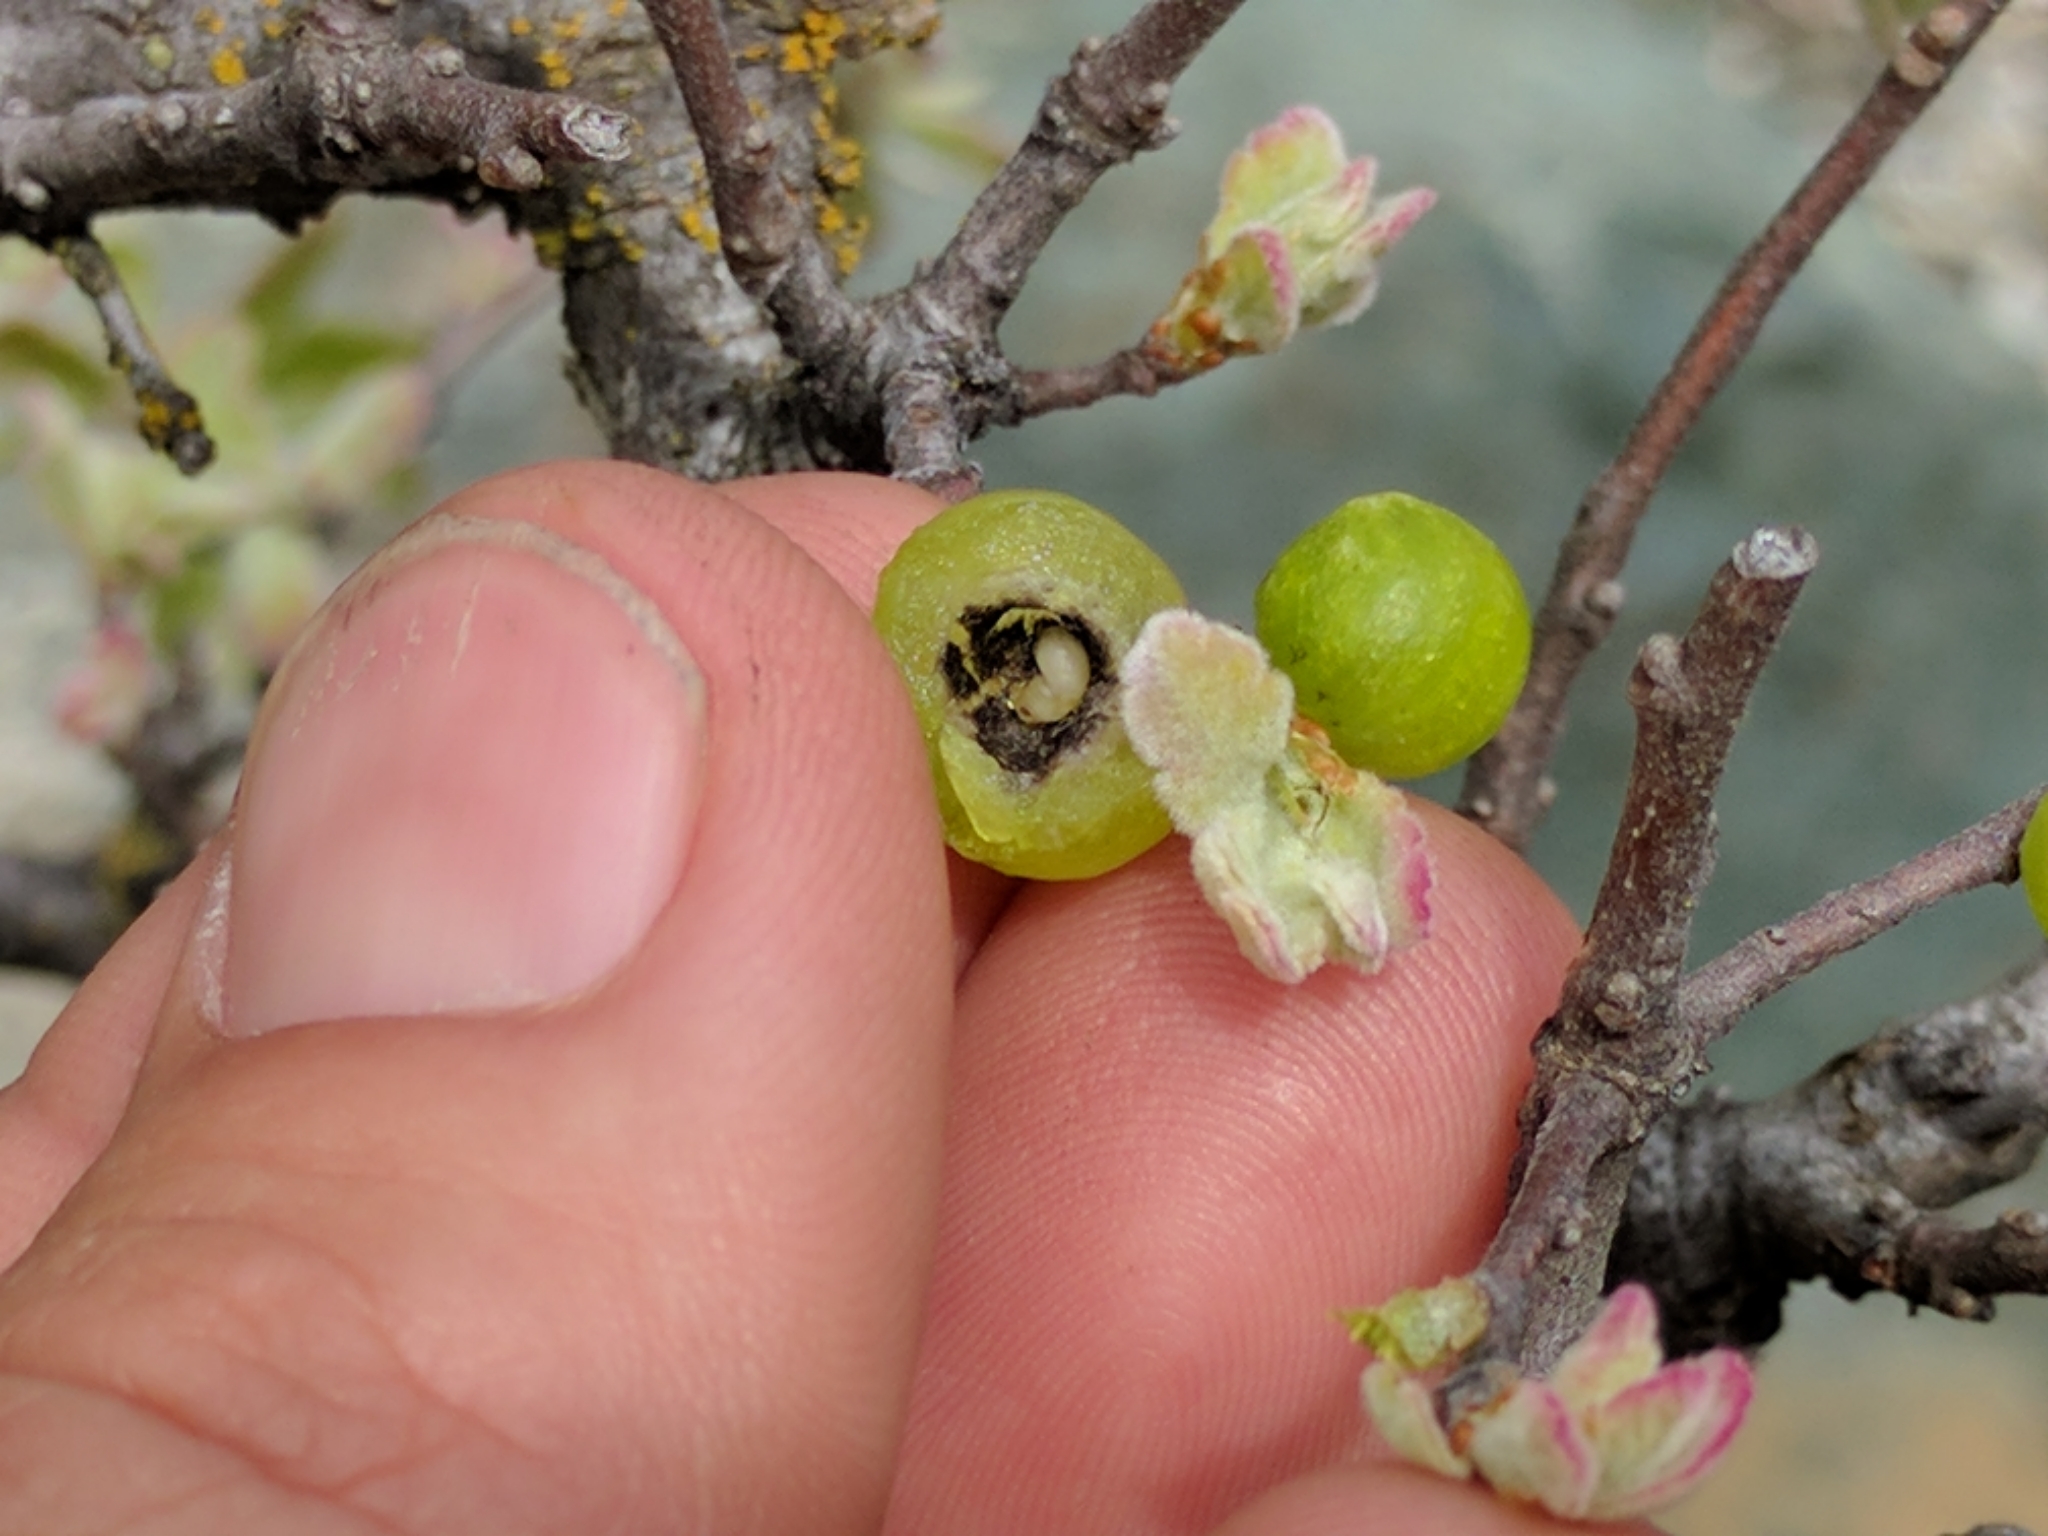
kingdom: Animalia
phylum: Arthropoda
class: Insecta
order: Hymenoptera
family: Cynipidae
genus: Cynips
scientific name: Cynips douglasi
